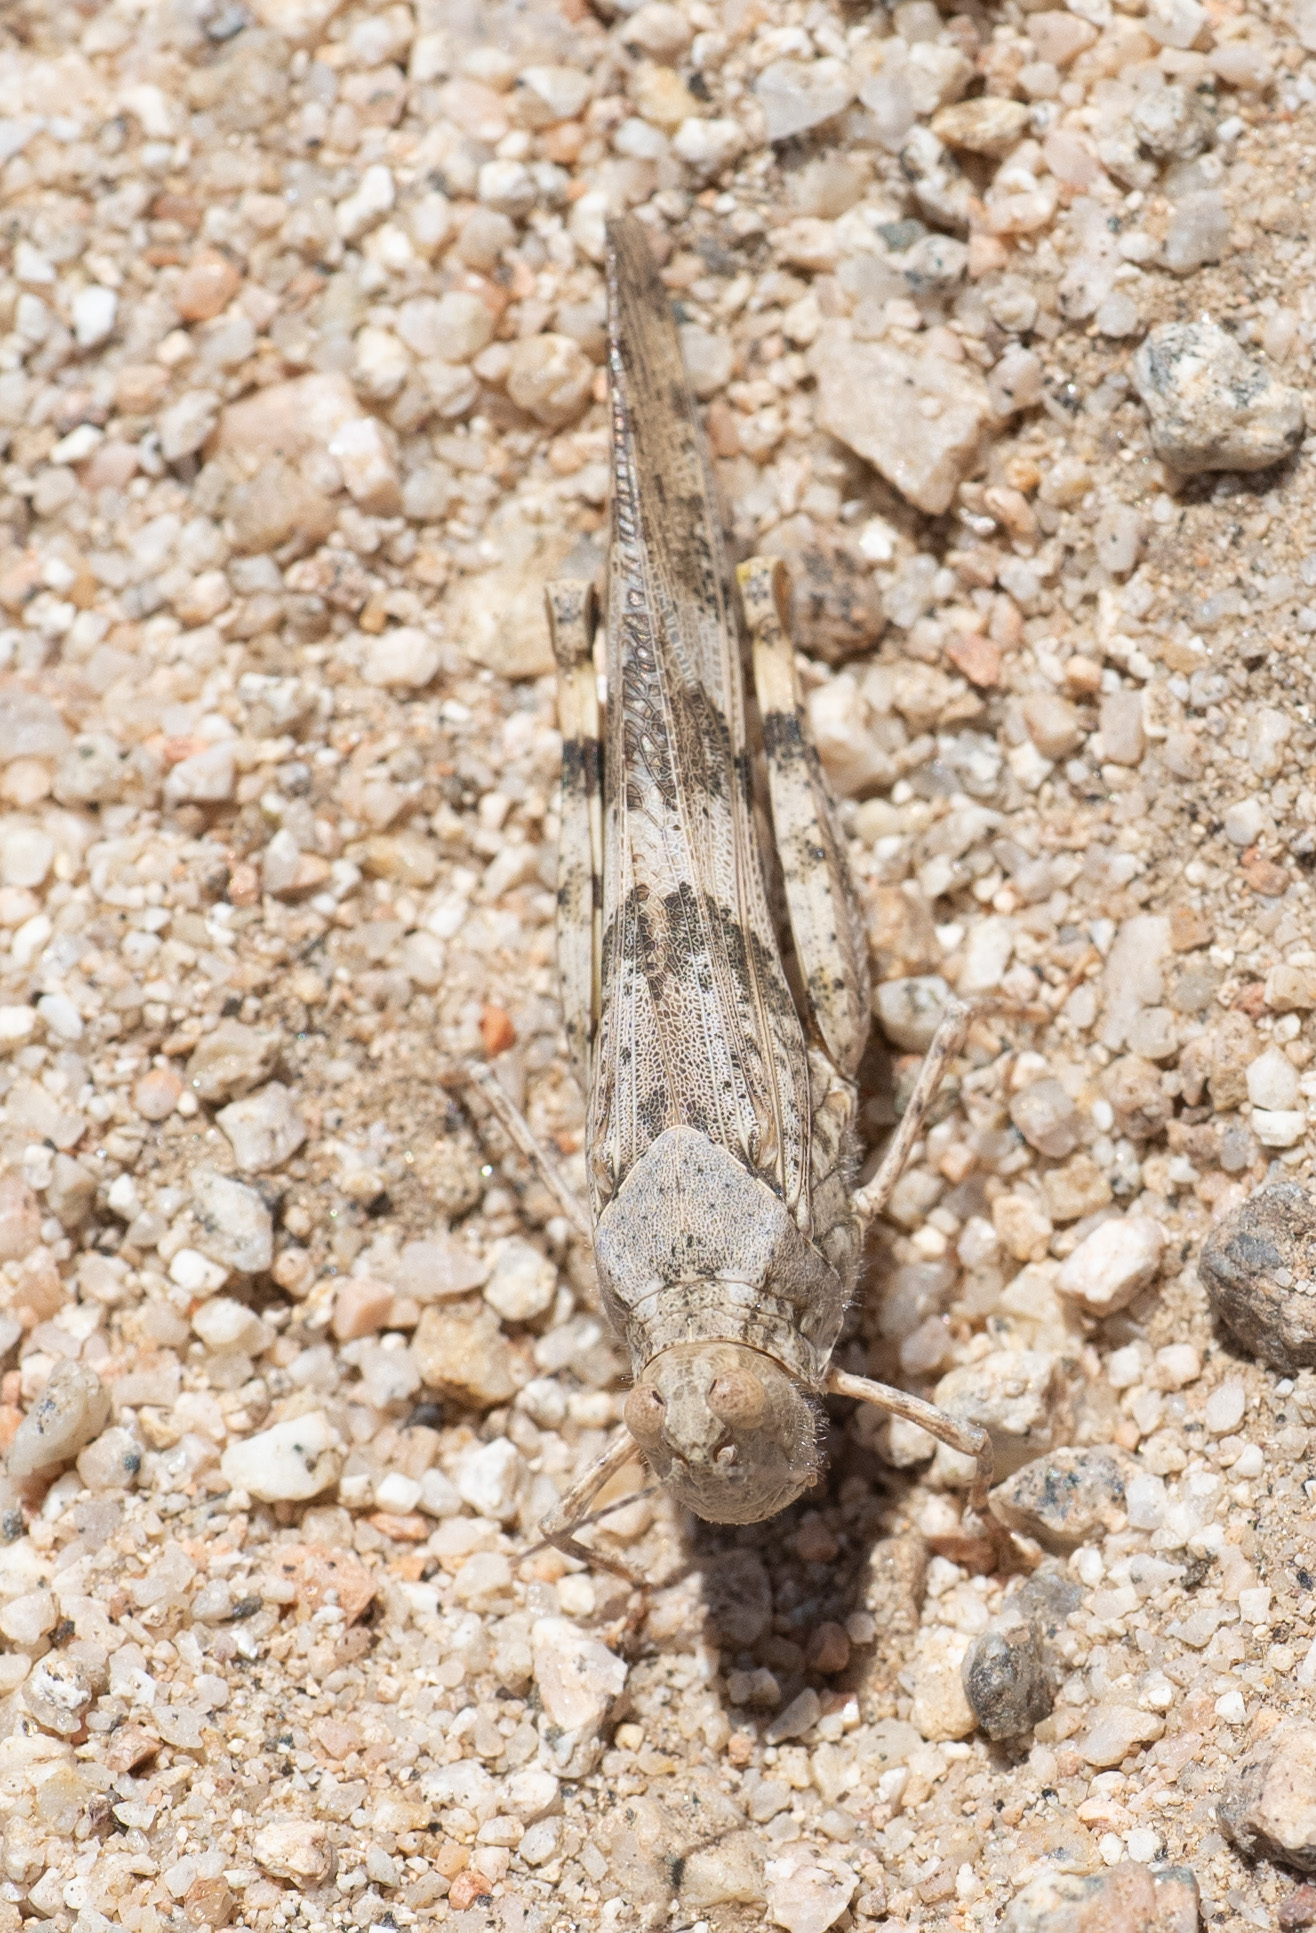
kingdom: Animalia
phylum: Arthropoda
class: Insecta
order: Orthoptera
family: Acrididae
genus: Trimerotropis
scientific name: Trimerotropis pallidipennis
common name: Pallid-winged grasshopper
